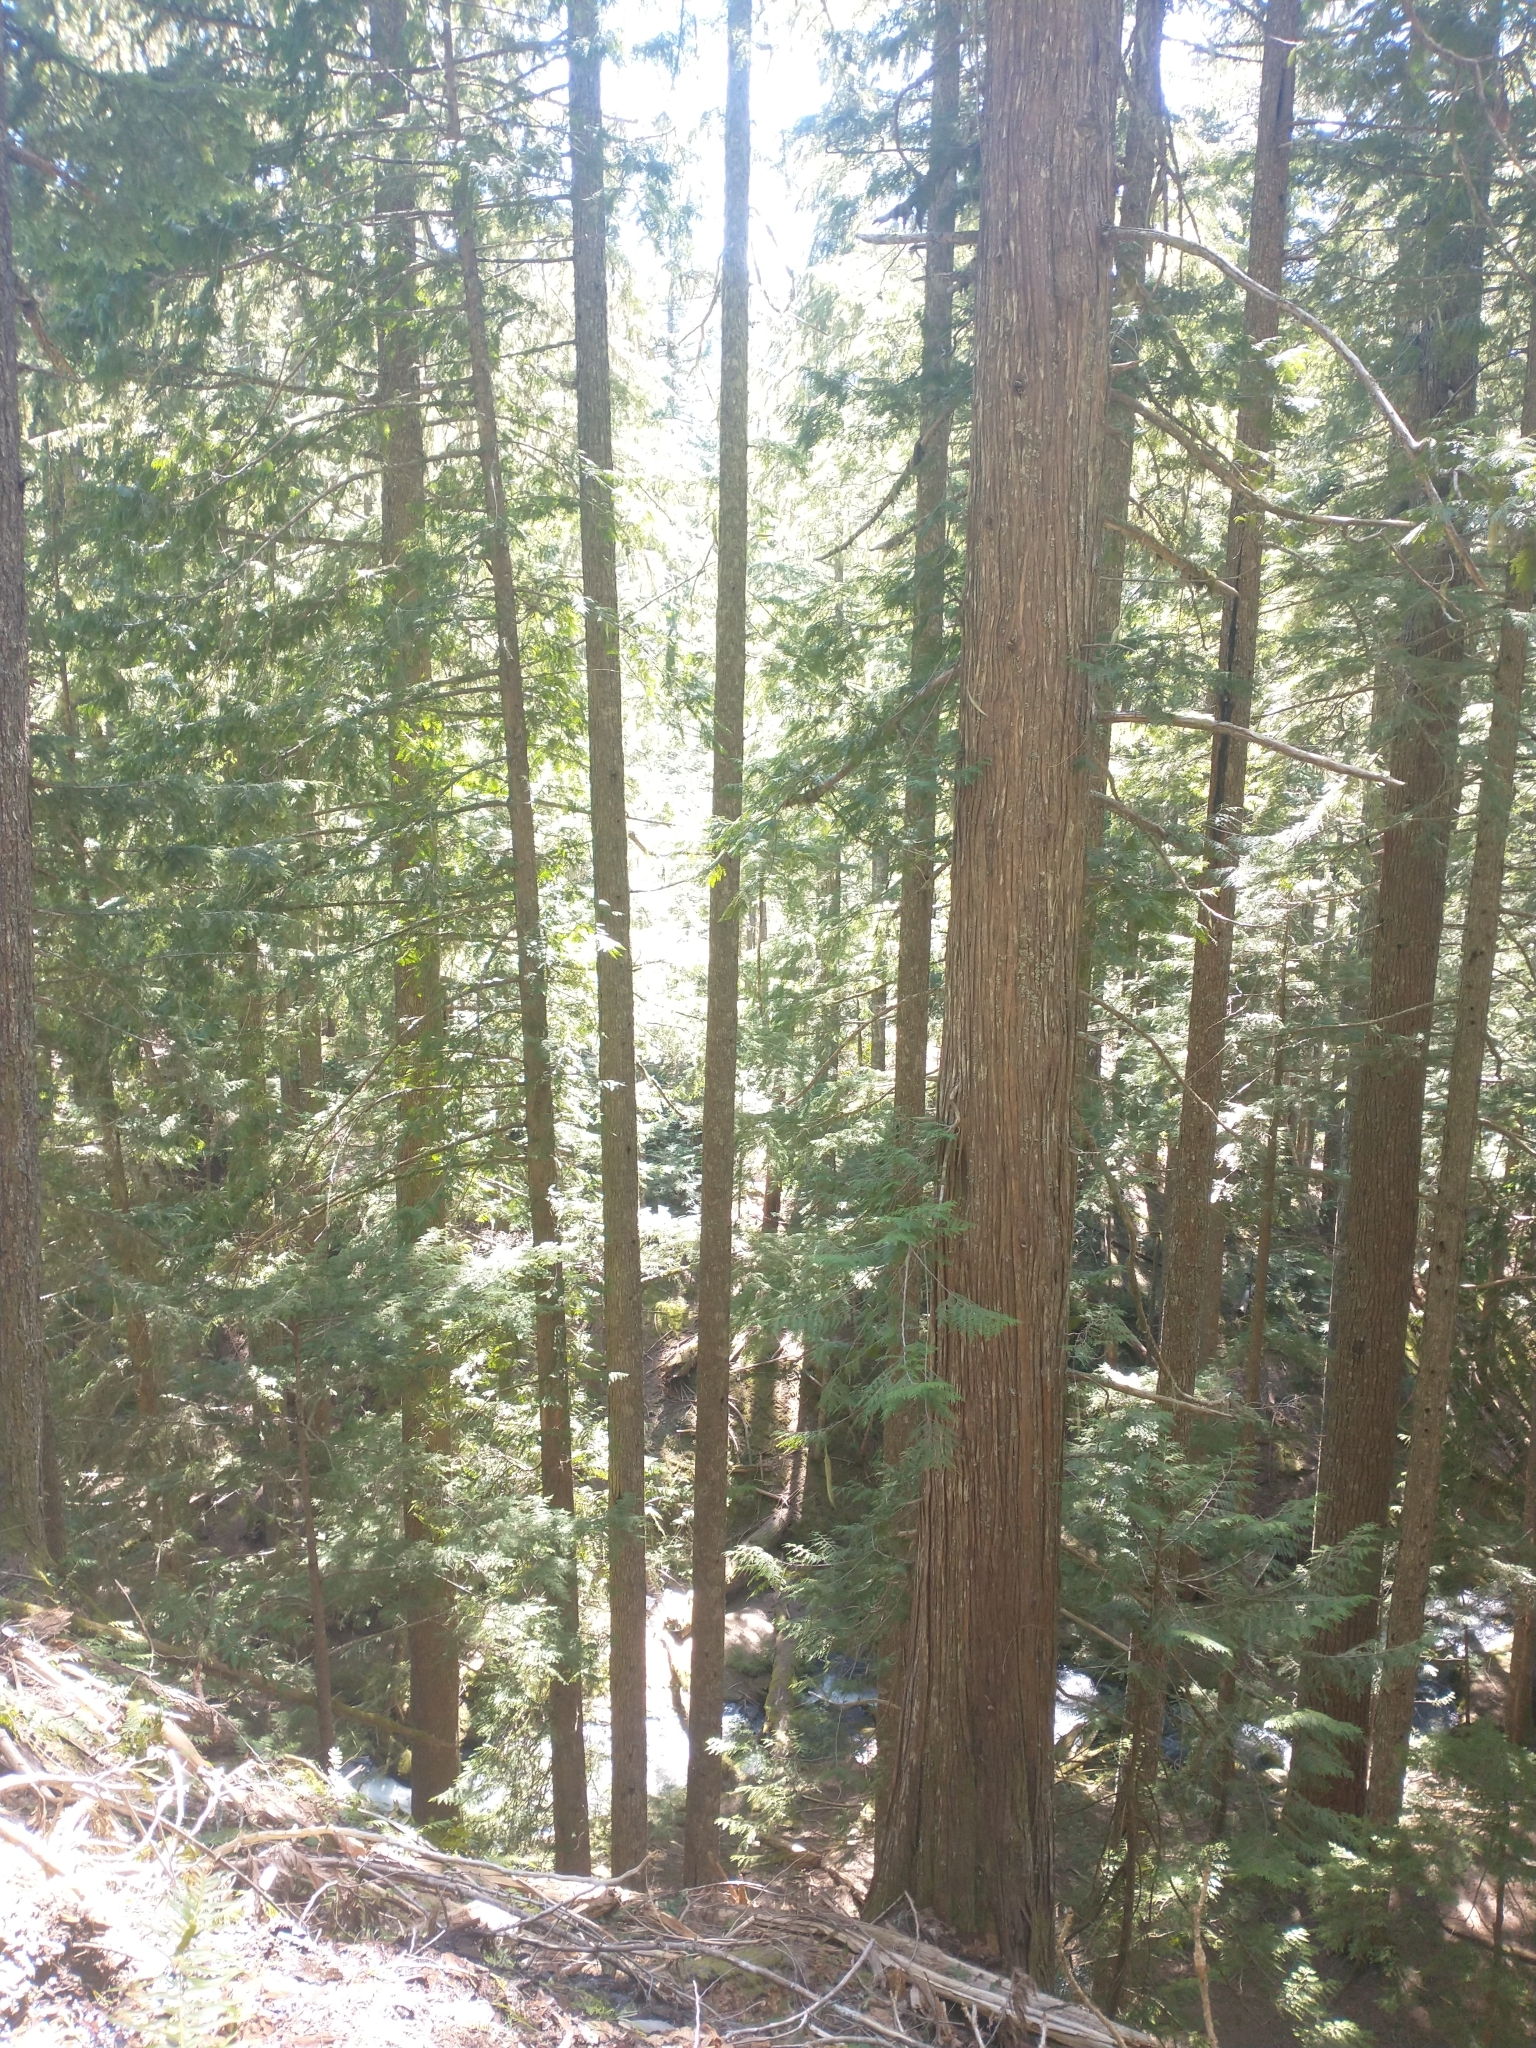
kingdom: Plantae
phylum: Tracheophyta
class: Pinopsida
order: Pinales
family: Cupressaceae
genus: Thuja
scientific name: Thuja plicata
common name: Western red-cedar
